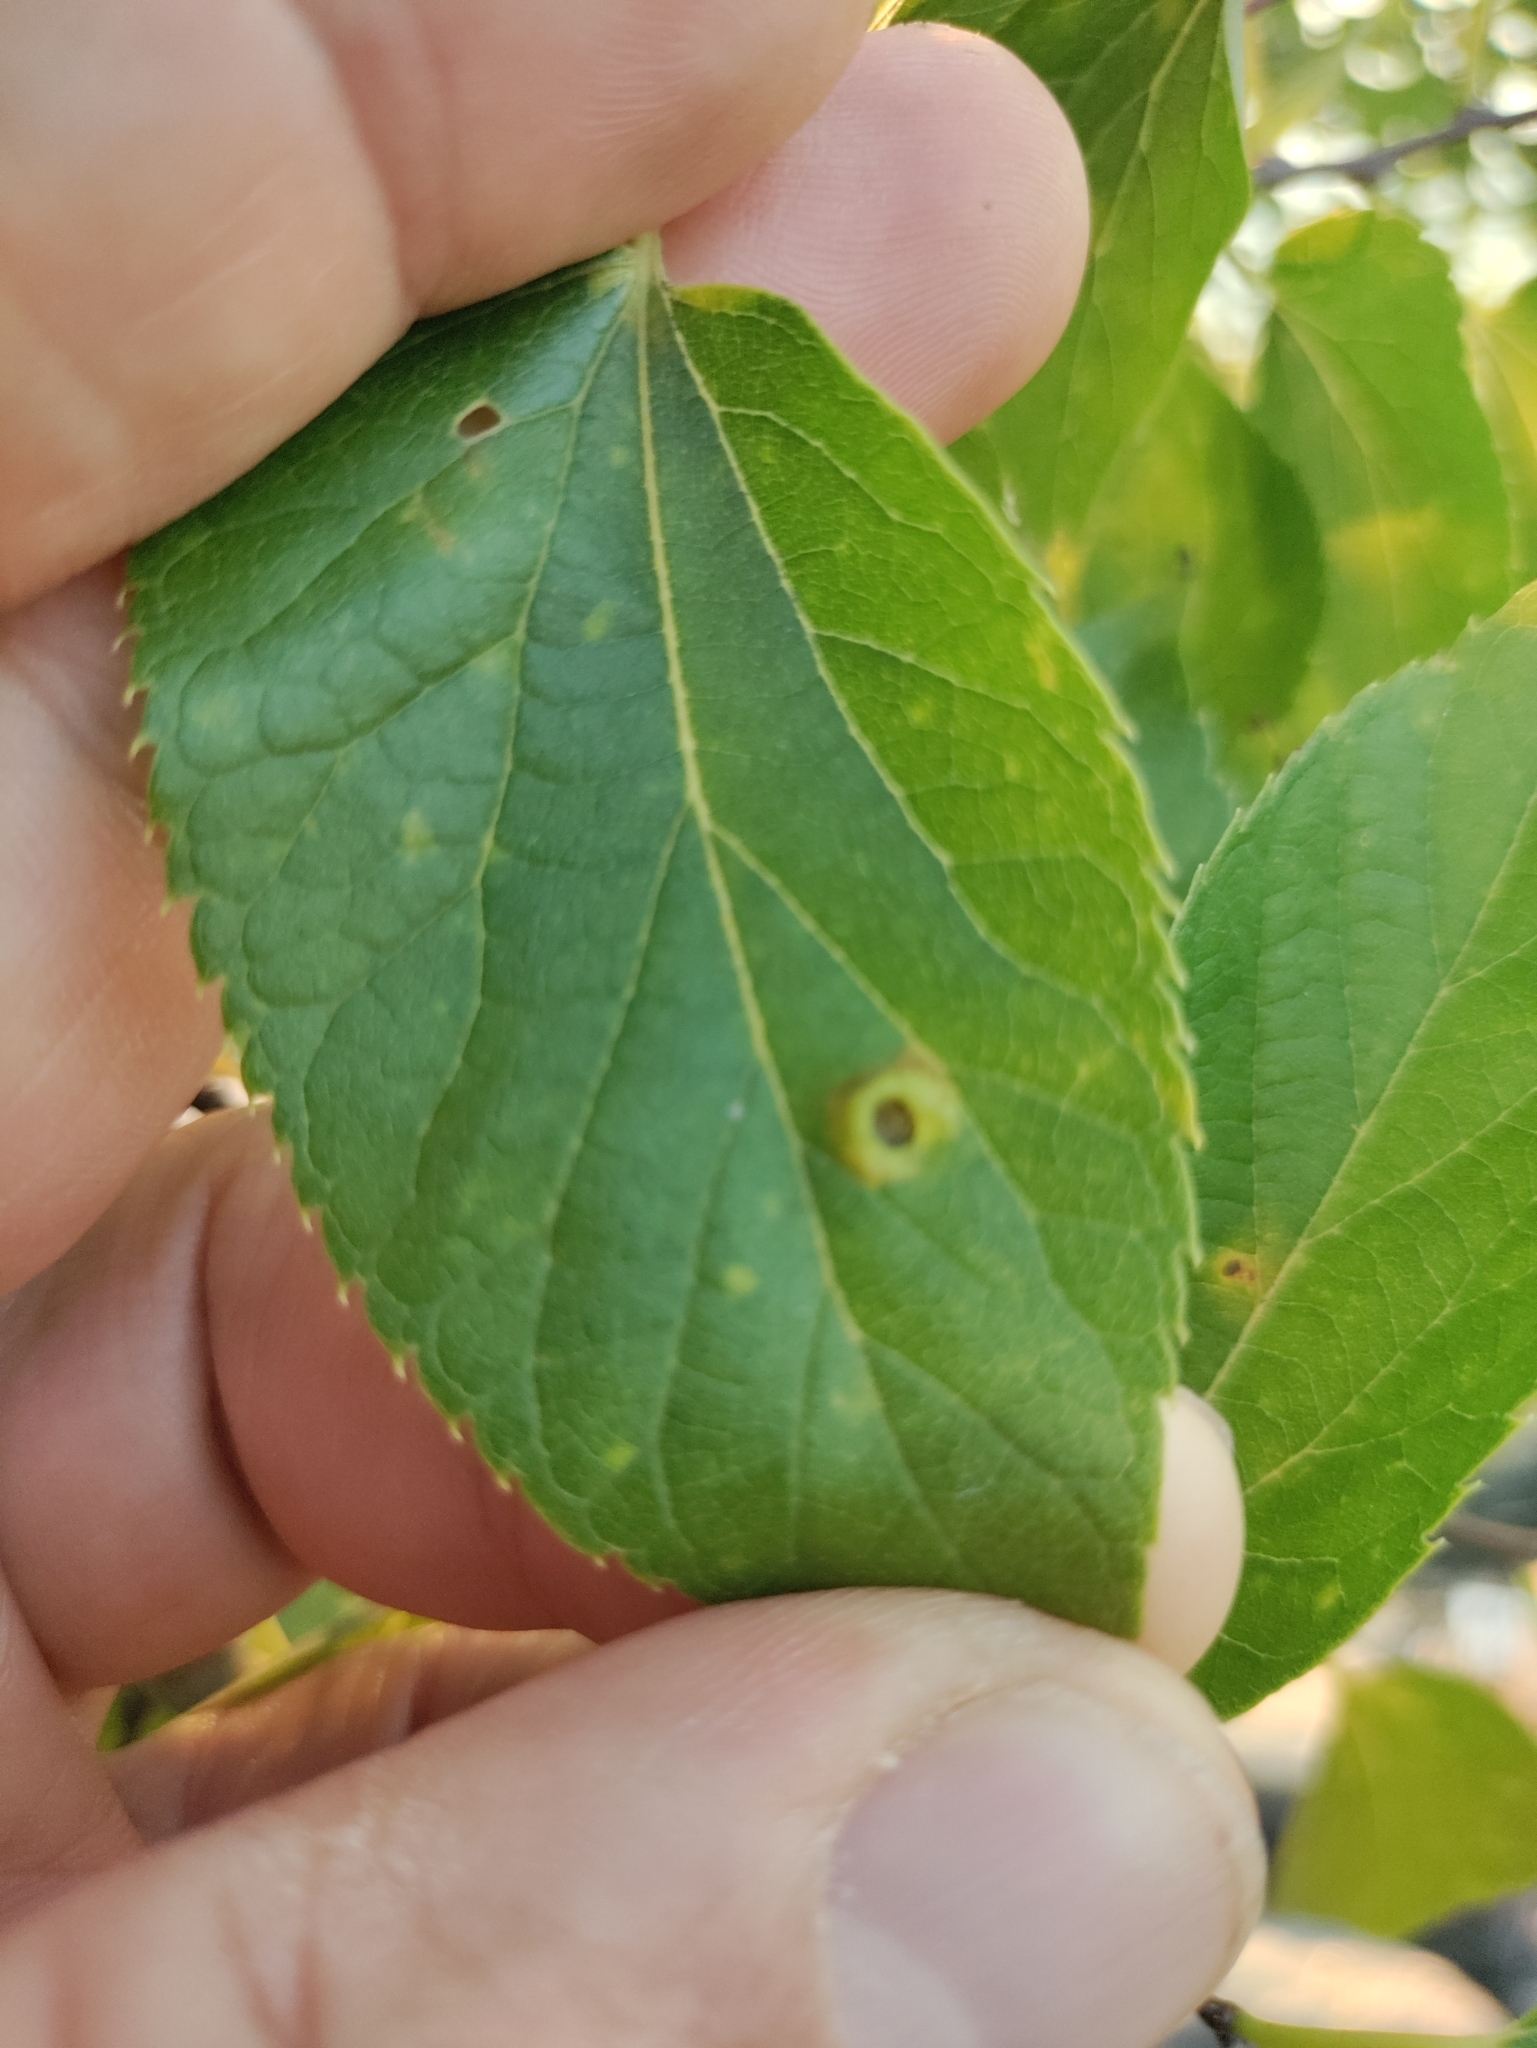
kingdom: Animalia
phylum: Arthropoda
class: Insecta
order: Hemiptera
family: Aphalaridae
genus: Pachypsylla
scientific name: Pachypsylla celtidismamma
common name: Hackberry nipplegall psyllid
